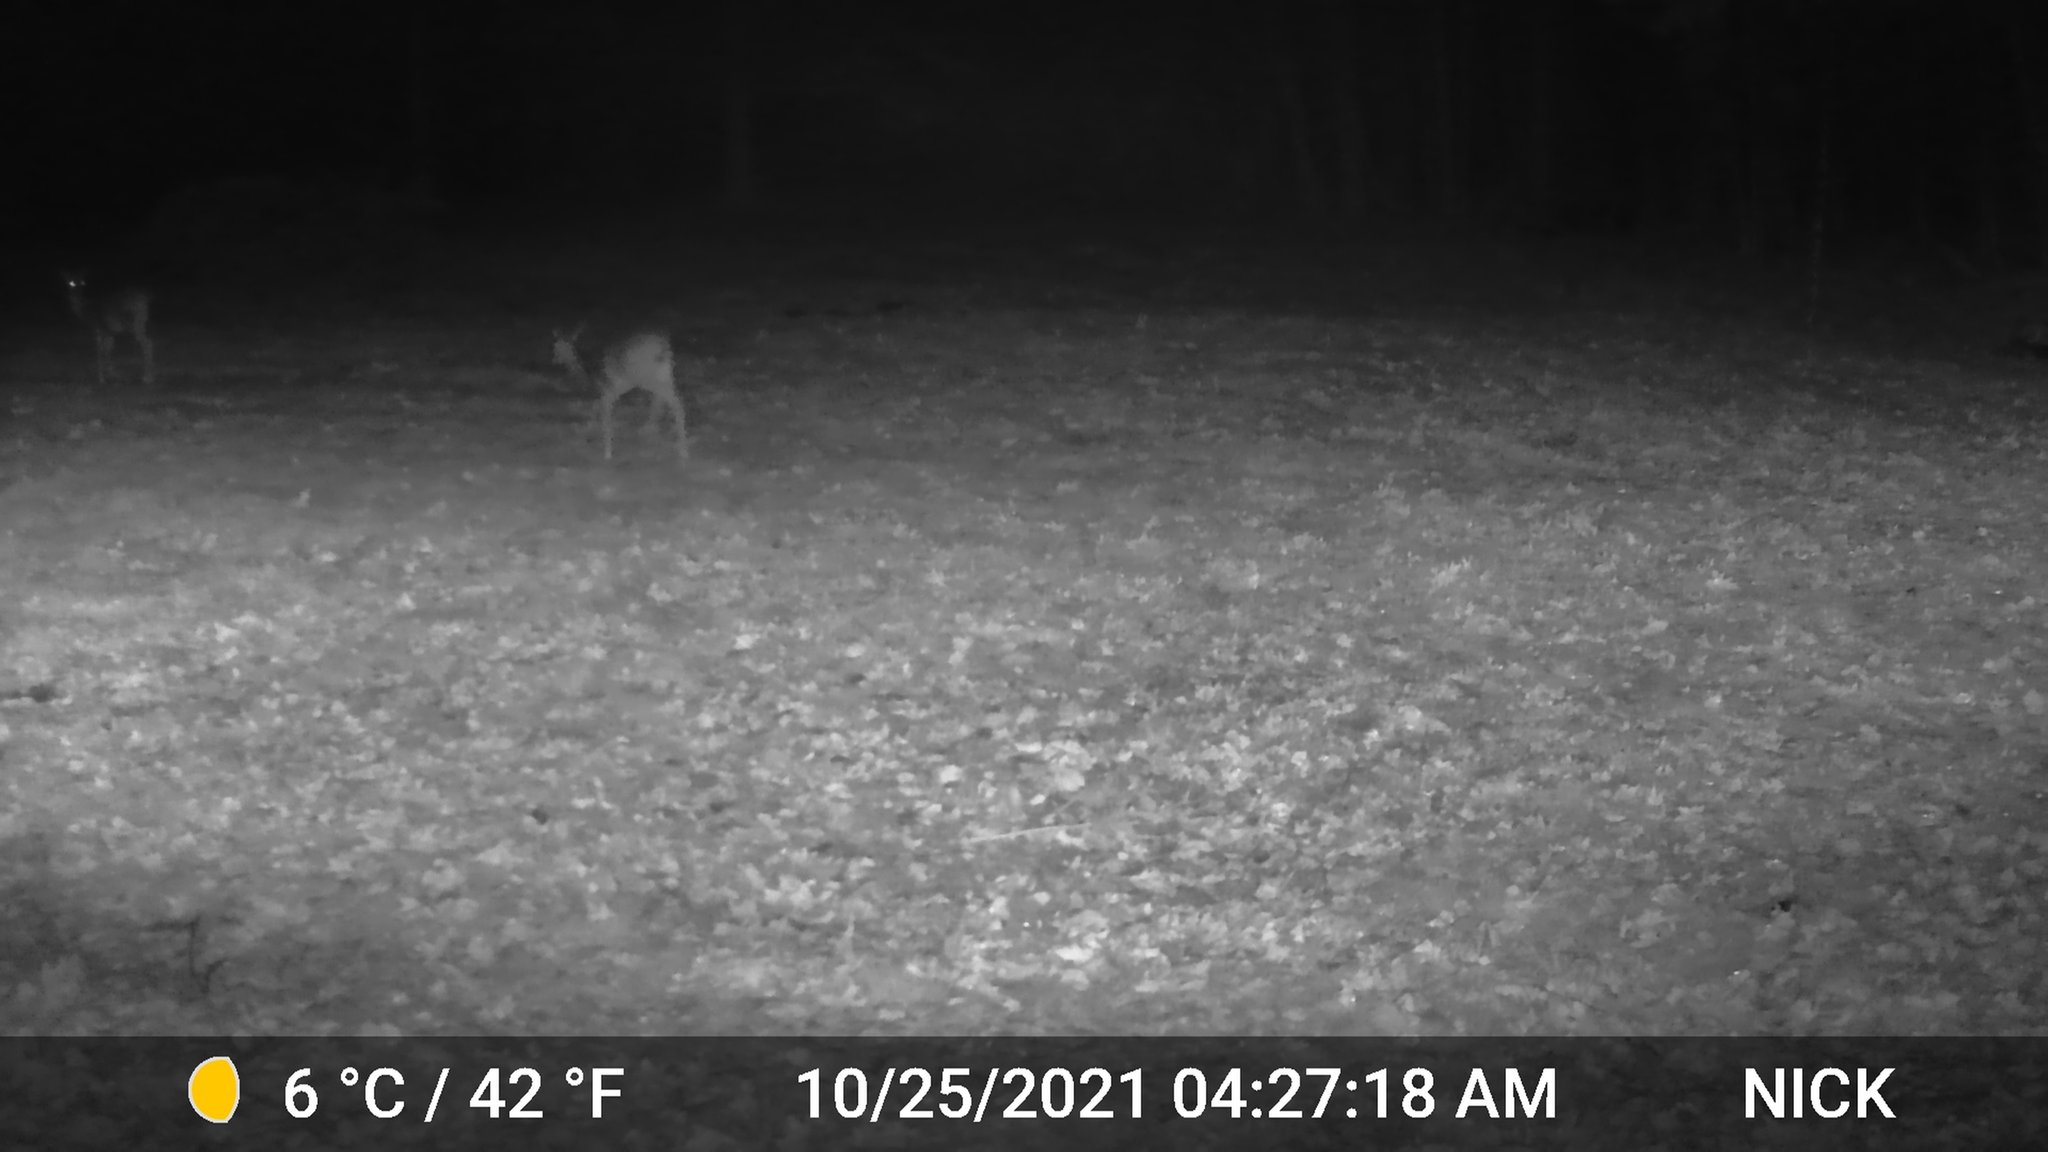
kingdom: Animalia
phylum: Chordata
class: Mammalia
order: Artiodactyla
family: Cervidae
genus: Odocoileus
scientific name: Odocoileus virginianus
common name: White-tailed deer
